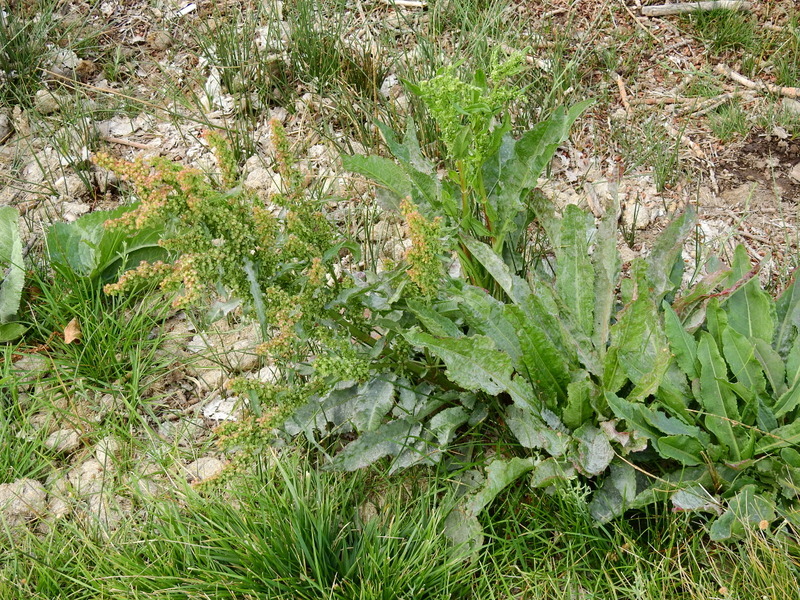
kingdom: Plantae
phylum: Tracheophyta
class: Magnoliopsida
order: Caryophyllales
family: Polygonaceae
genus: Rumex
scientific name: Rumex crispus
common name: Curled dock
